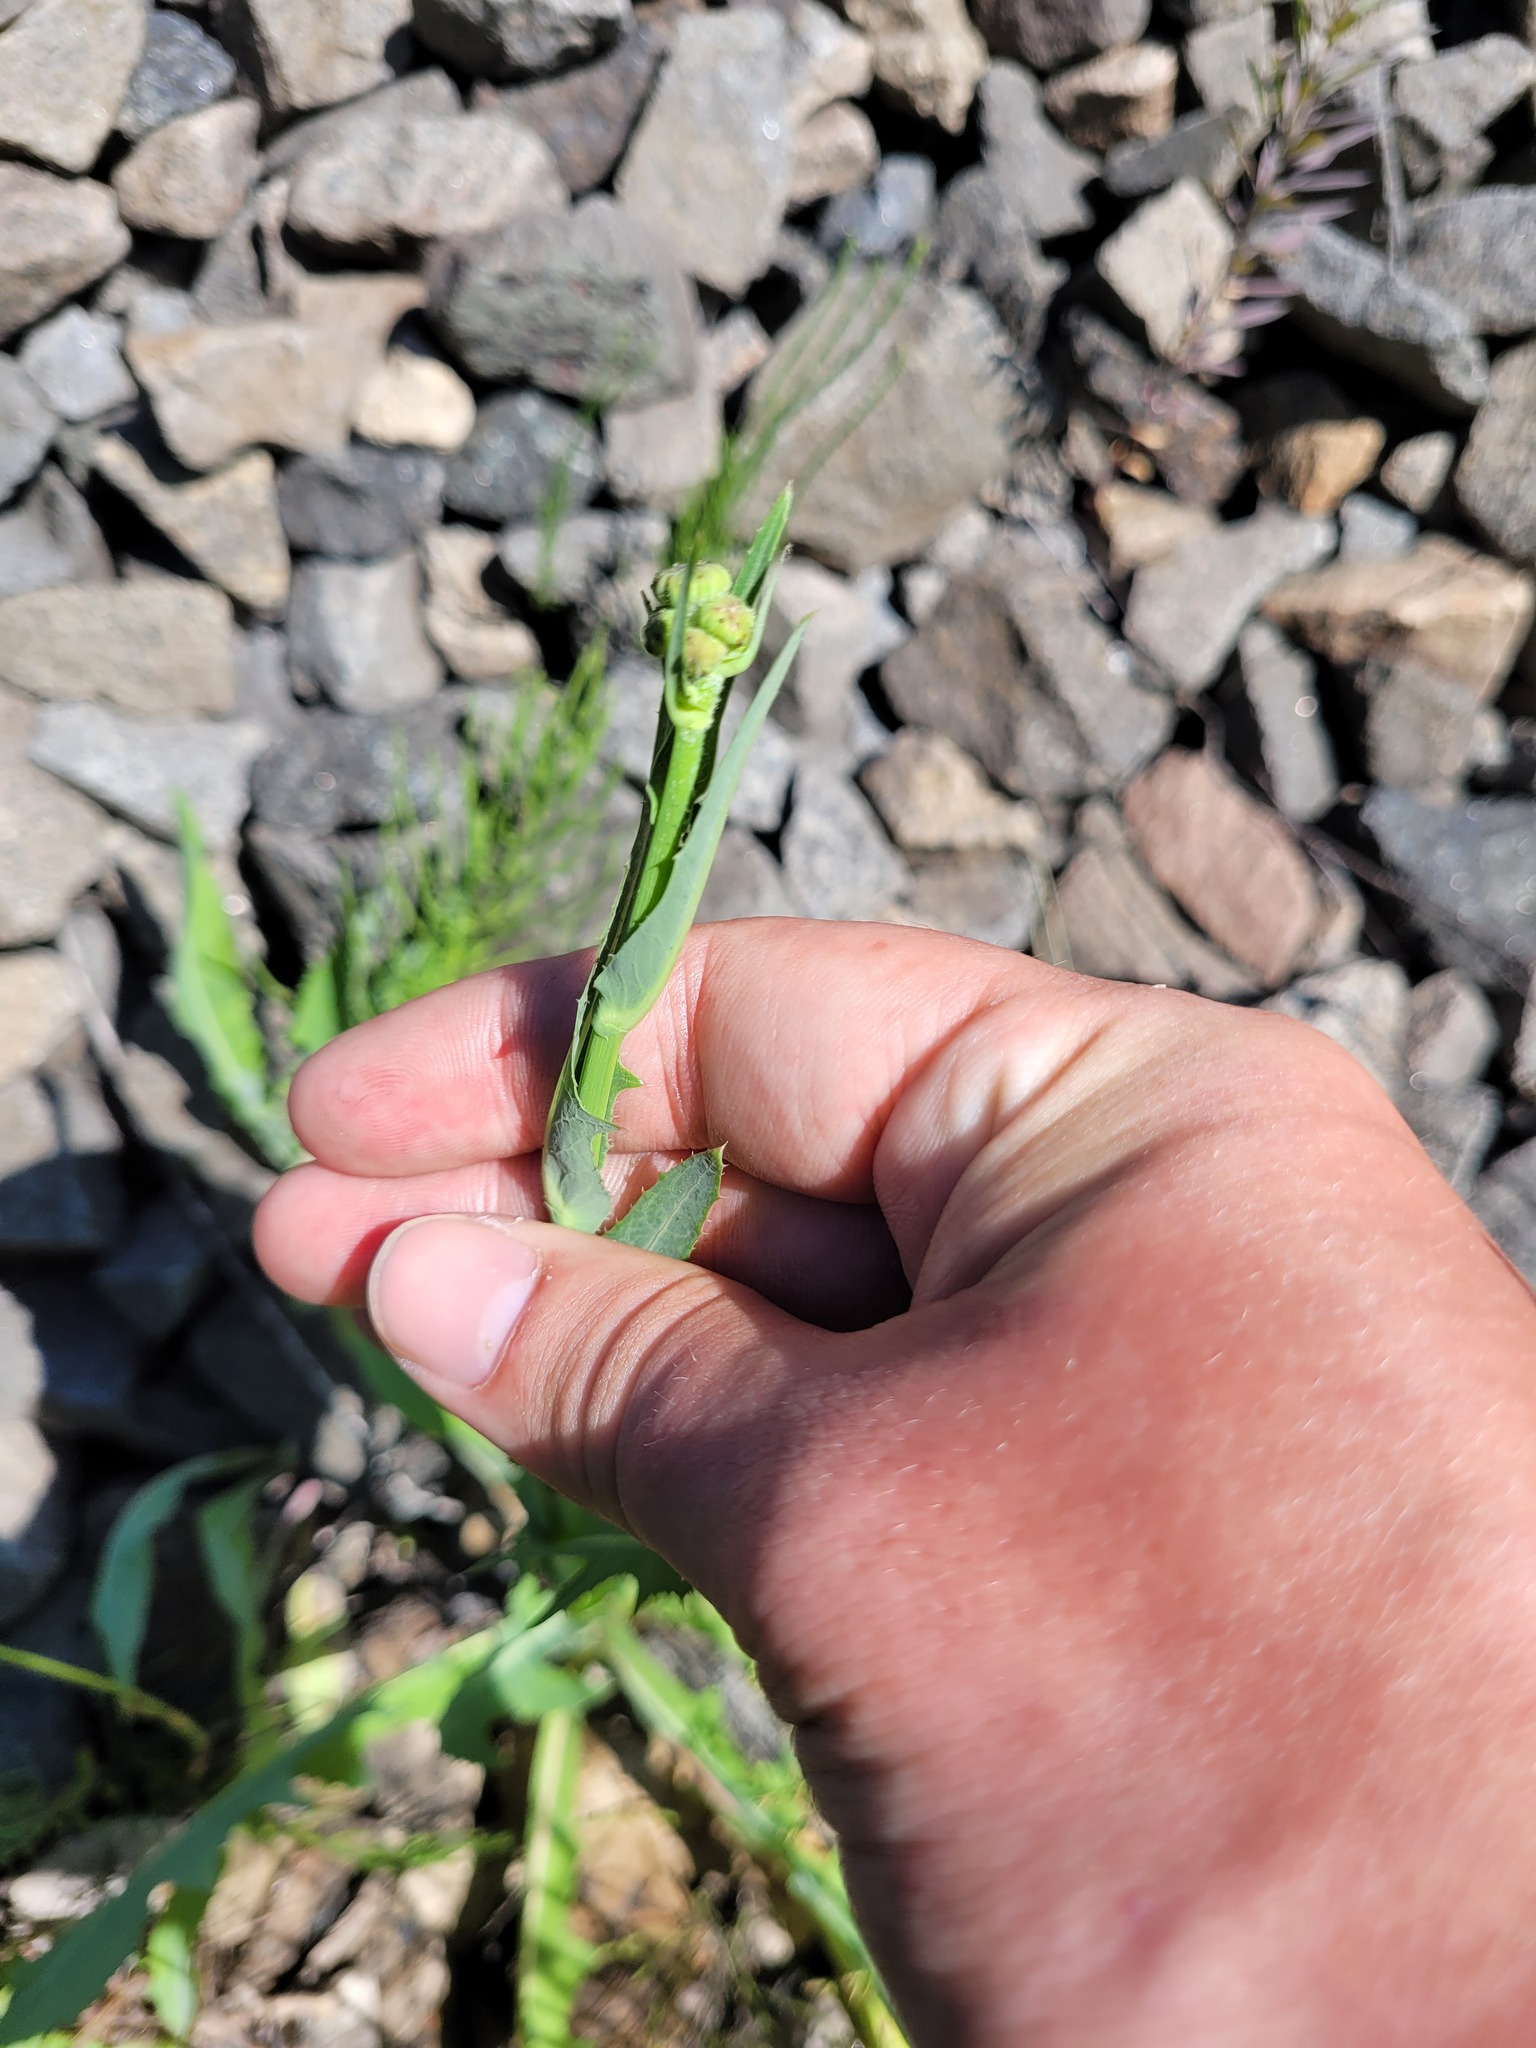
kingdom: Plantae
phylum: Tracheophyta
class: Magnoliopsida
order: Asterales
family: Asteraceae
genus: Sonchus
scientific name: Sonchus arvensis
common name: Perennial sow-thistle
